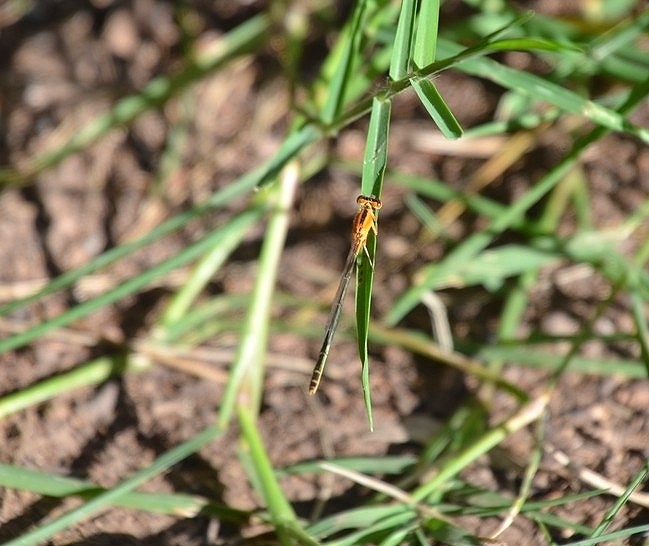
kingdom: Animalia
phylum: Arthropoda
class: Insecta
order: Odonata
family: Coenagrionidae
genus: Ischnura
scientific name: Ischnura fluviatilis
